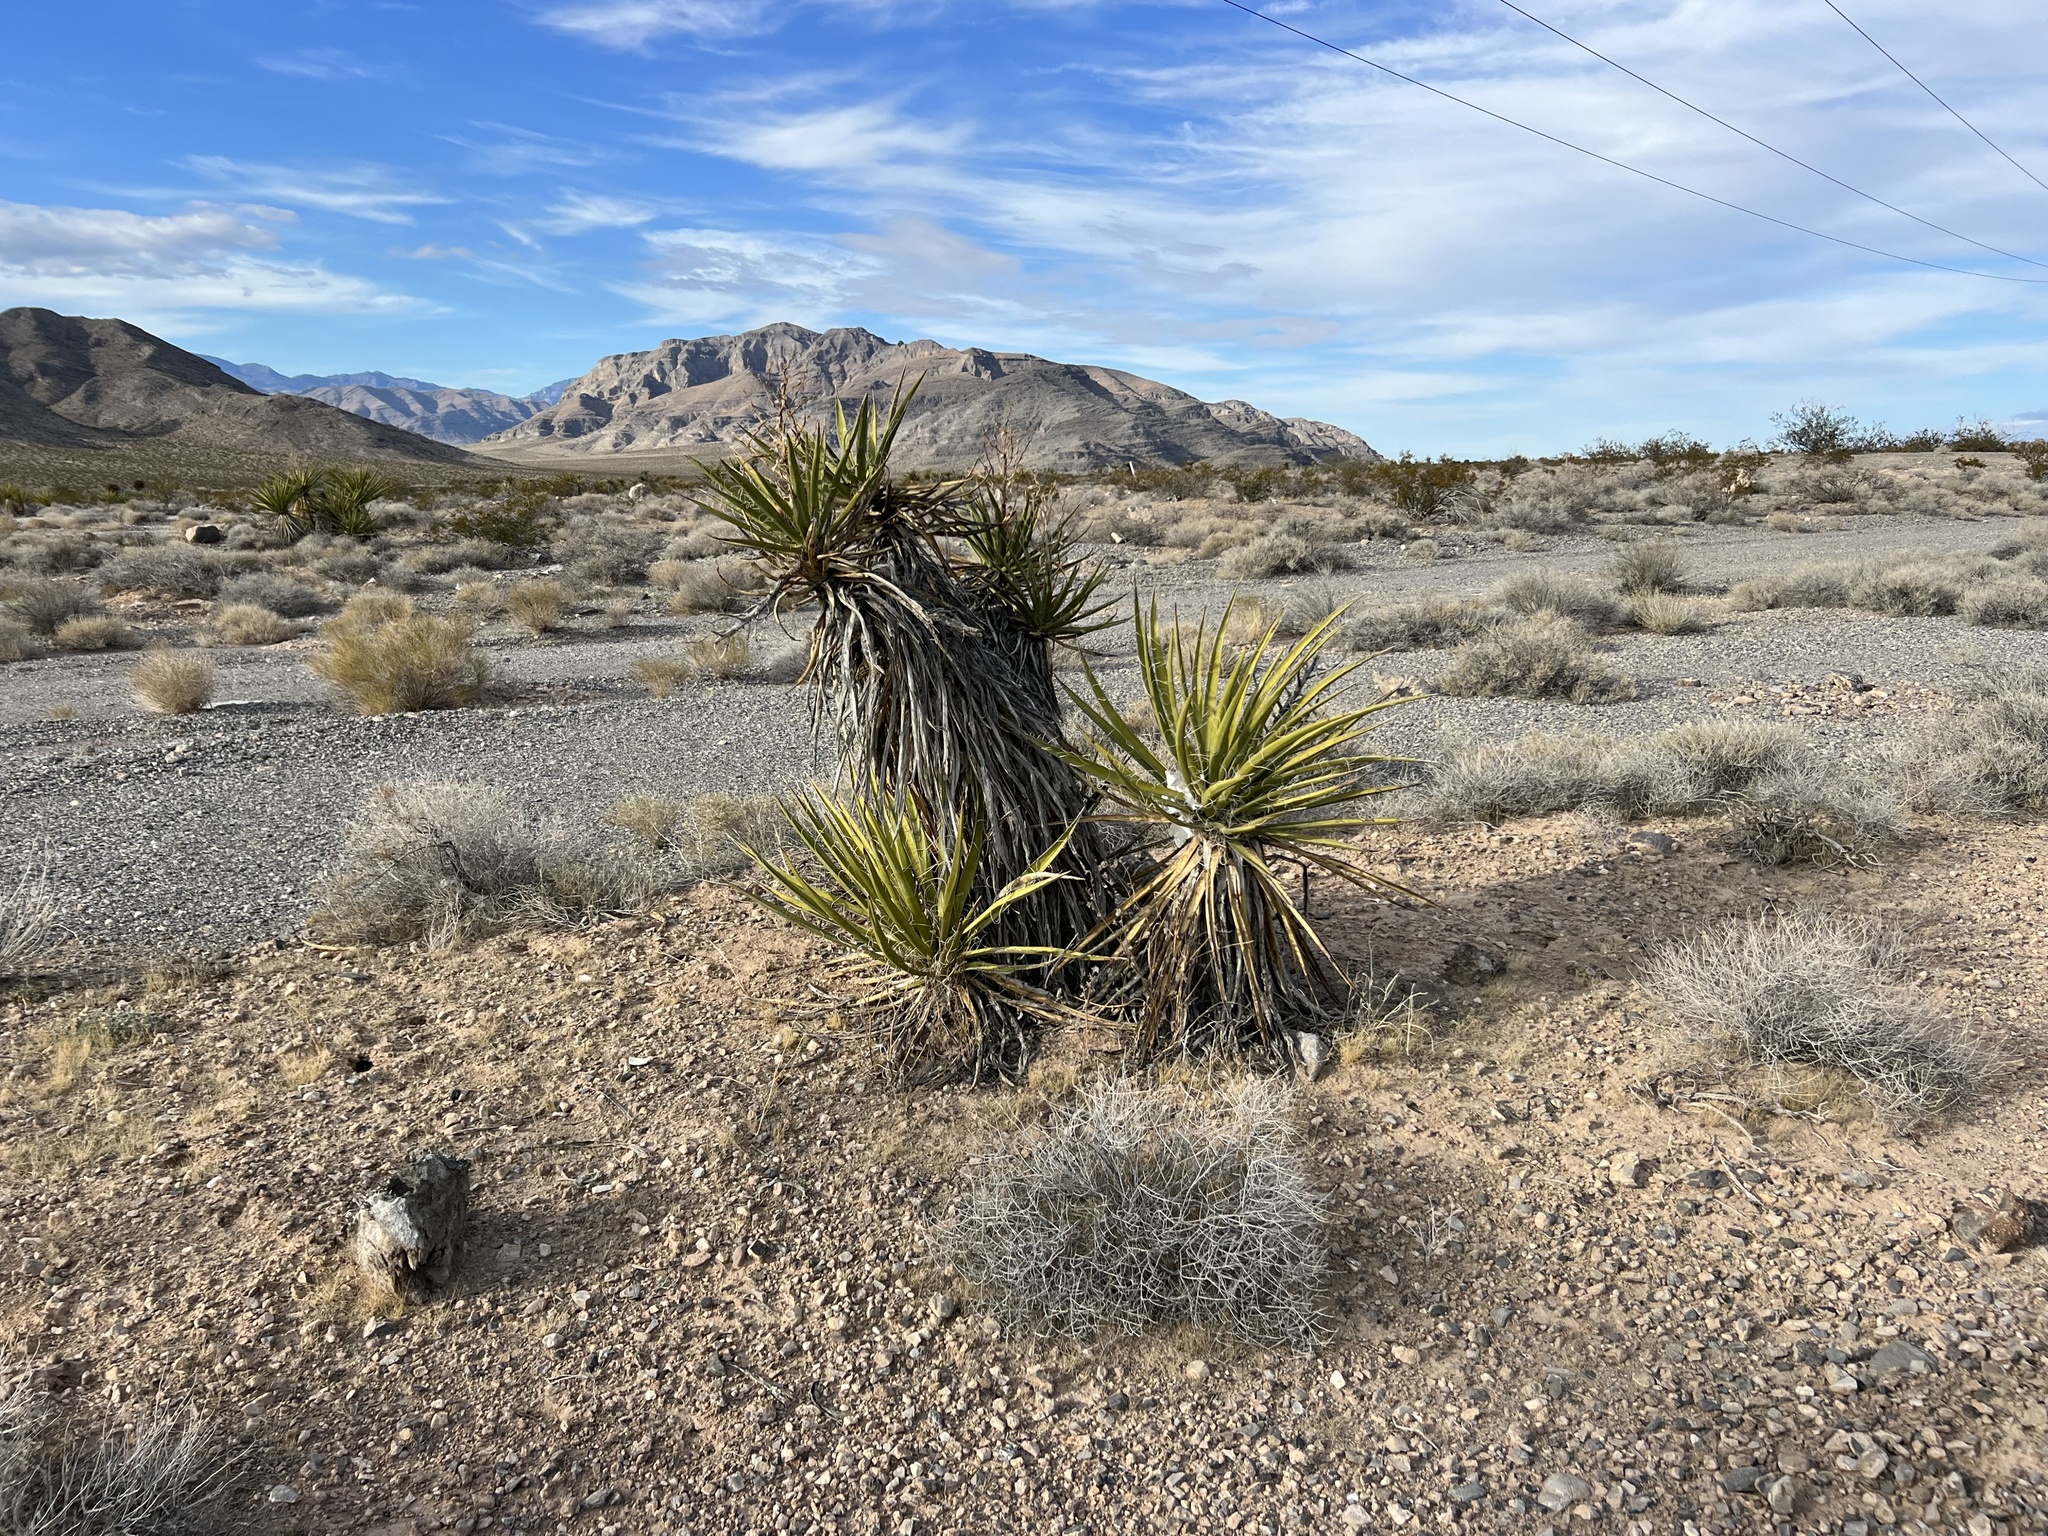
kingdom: Plantae
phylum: Tracheophyta
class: Liliopsida
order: Asparagales
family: Asparagaceae
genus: Yucca
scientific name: Yucca schidigera
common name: Mojave yucca
